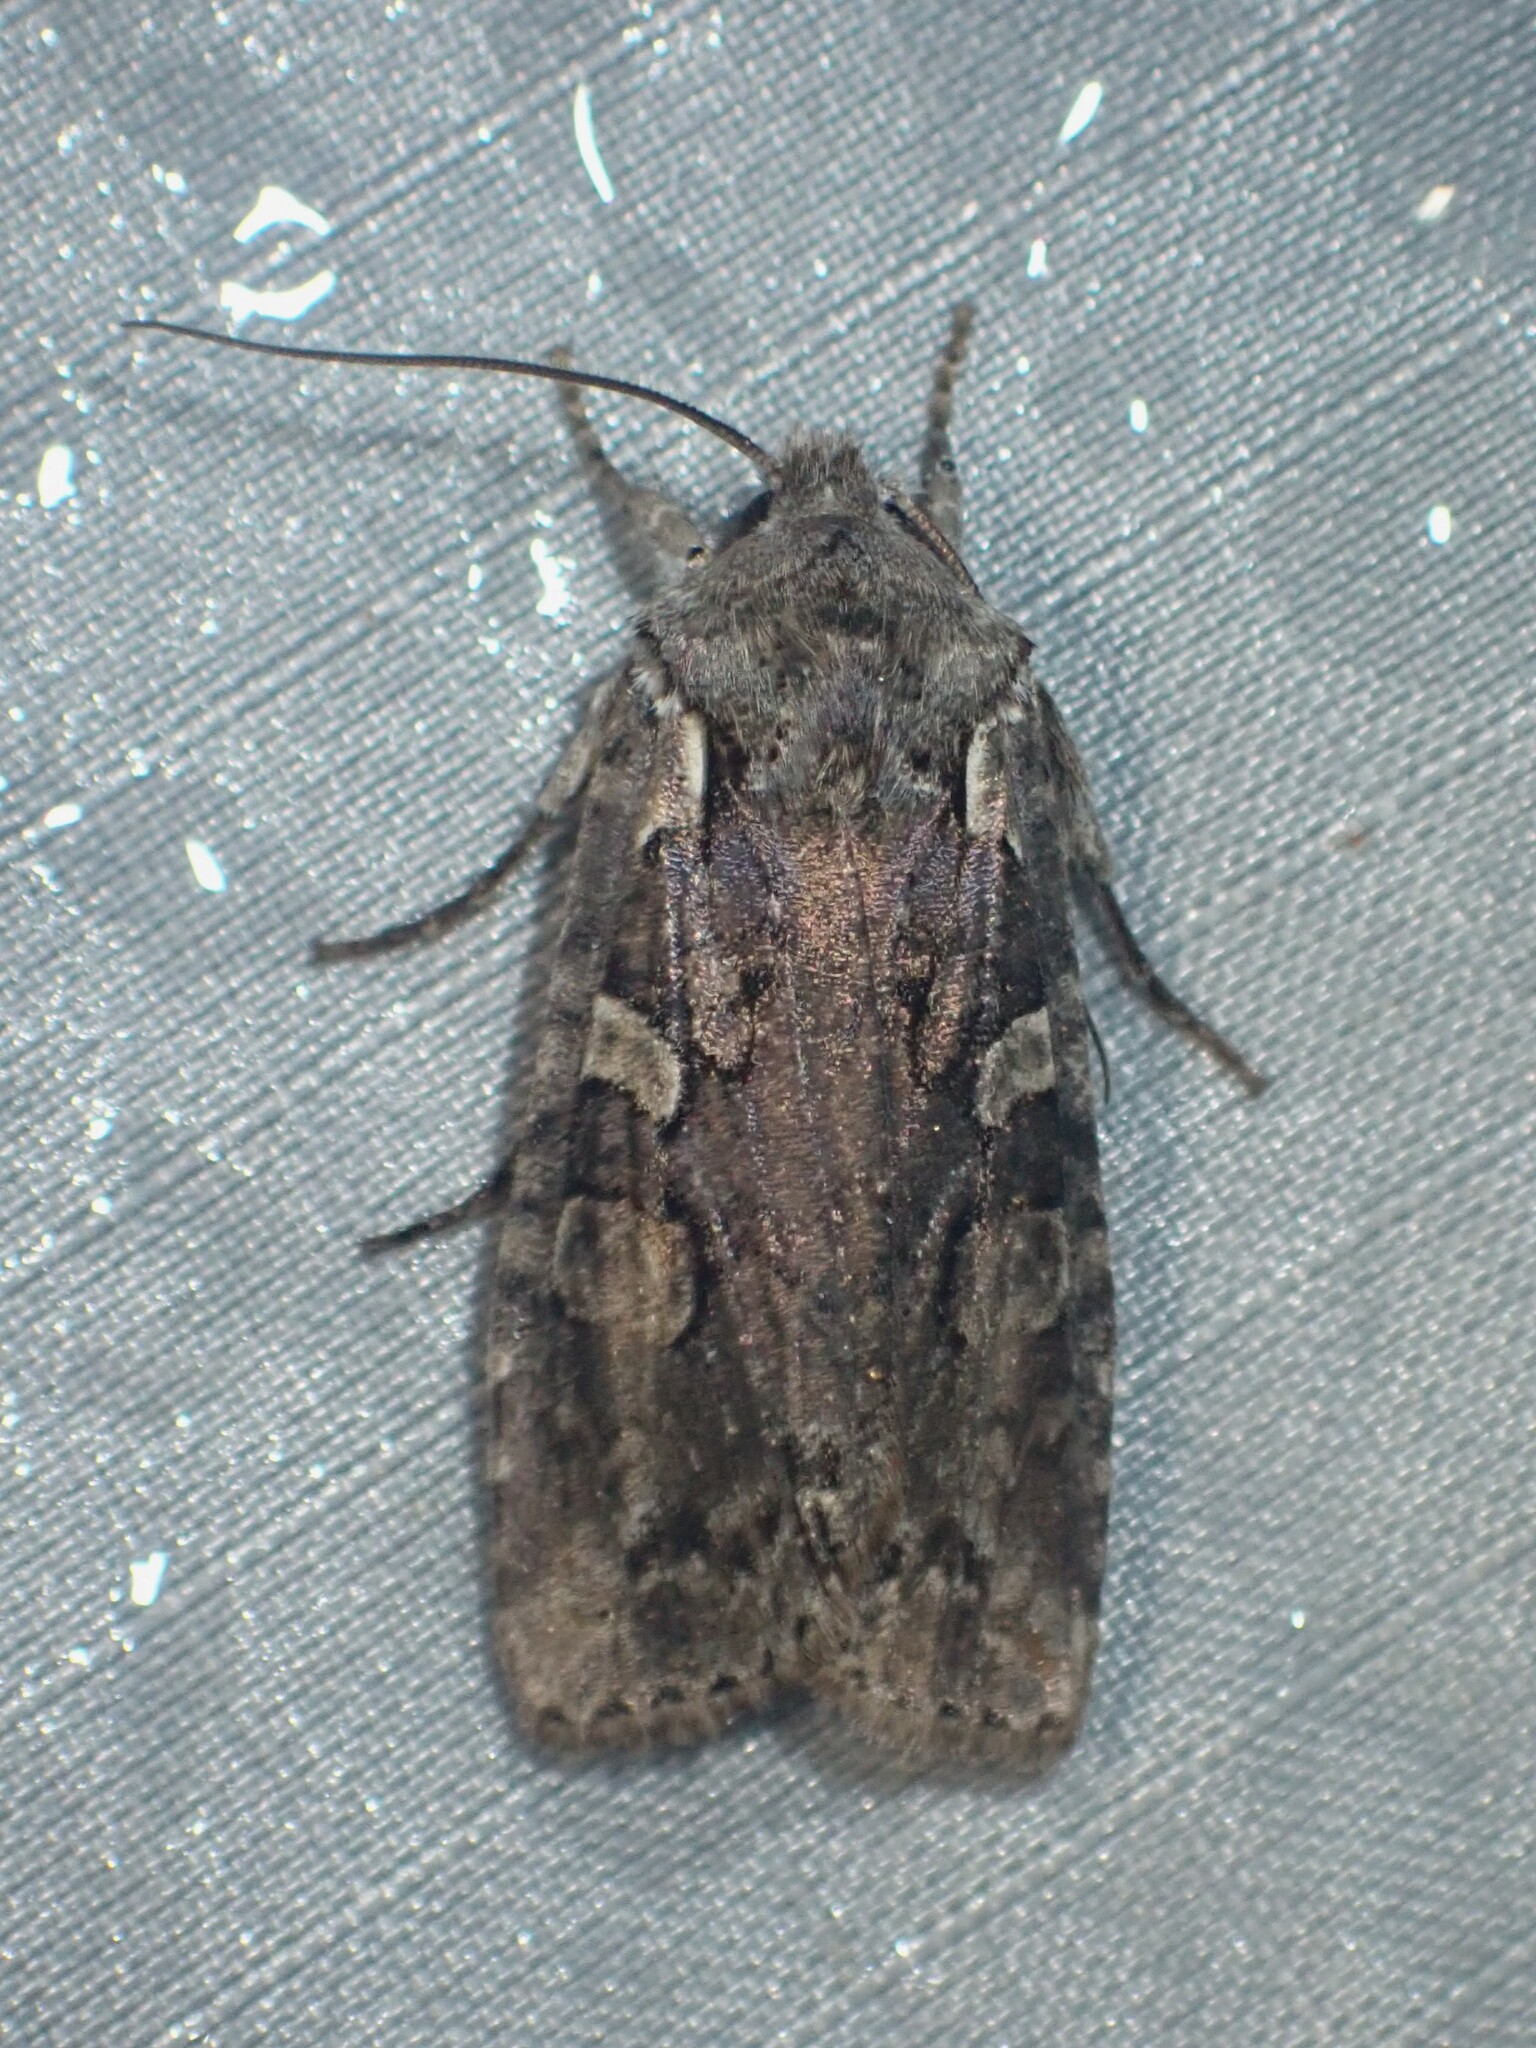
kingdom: Animalia
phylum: Arthropoda
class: Insecta
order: Lepidoptera
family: Noctuidae
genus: Lithophane
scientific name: Lithophane baileyi
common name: Bailey's pinion moth
